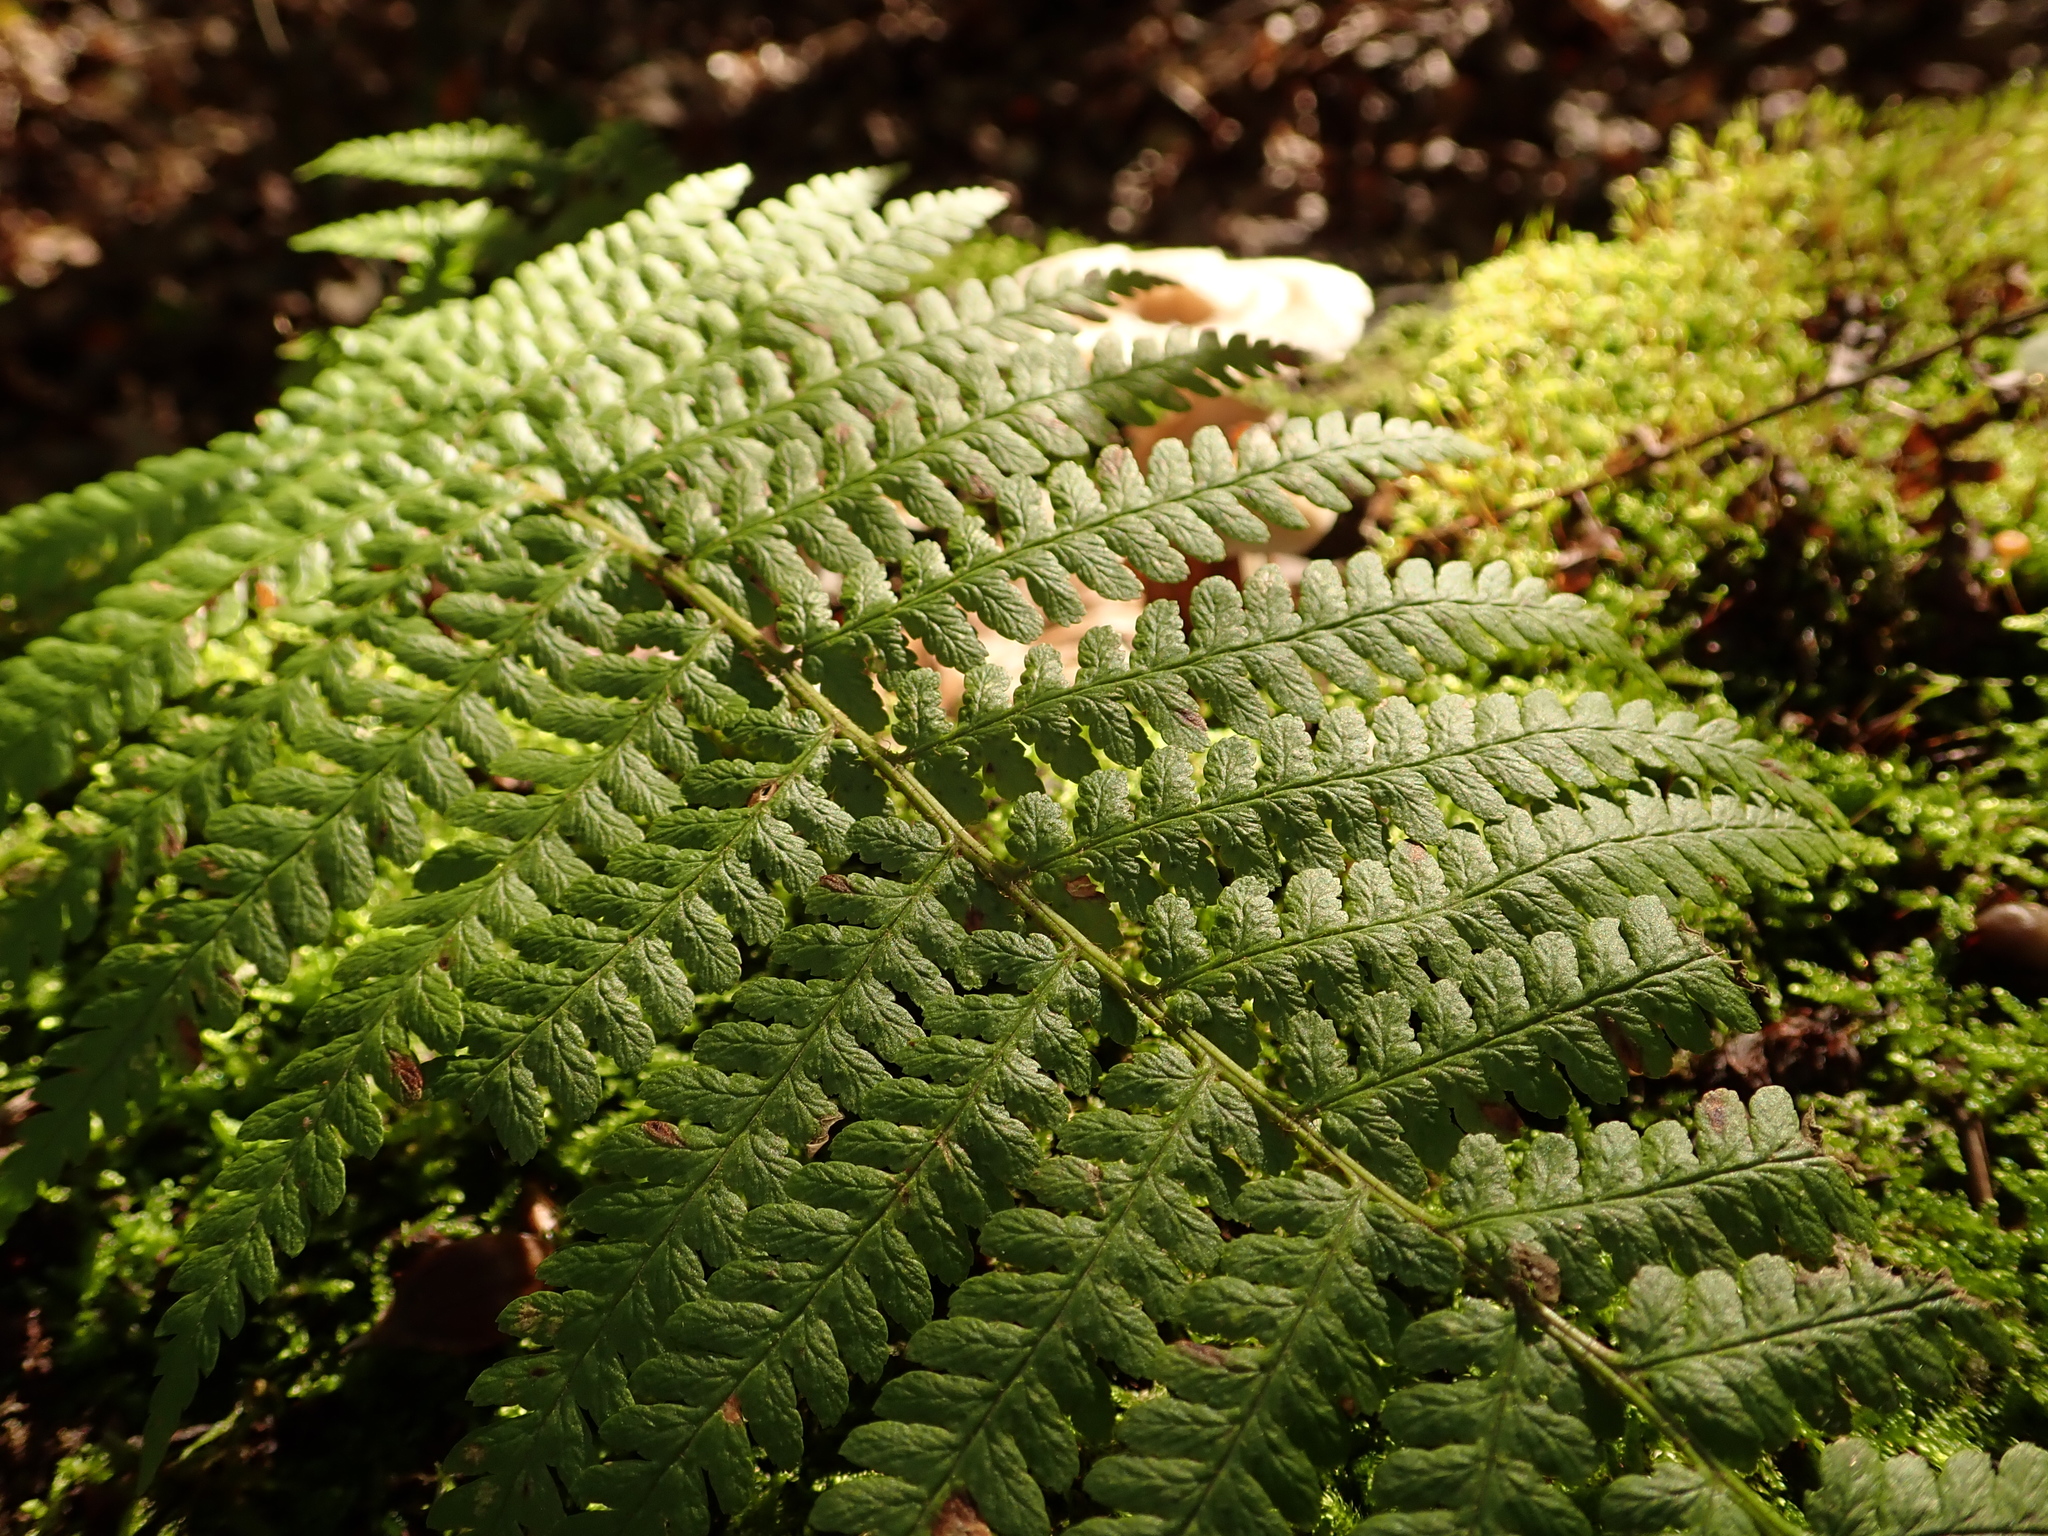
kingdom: Plantae
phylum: Tracheophyta
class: Polypodiopsida
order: Polypodiales
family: Dryopteridaceae
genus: Dryopteris
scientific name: Dryopteris filix-mas
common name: Male fern
